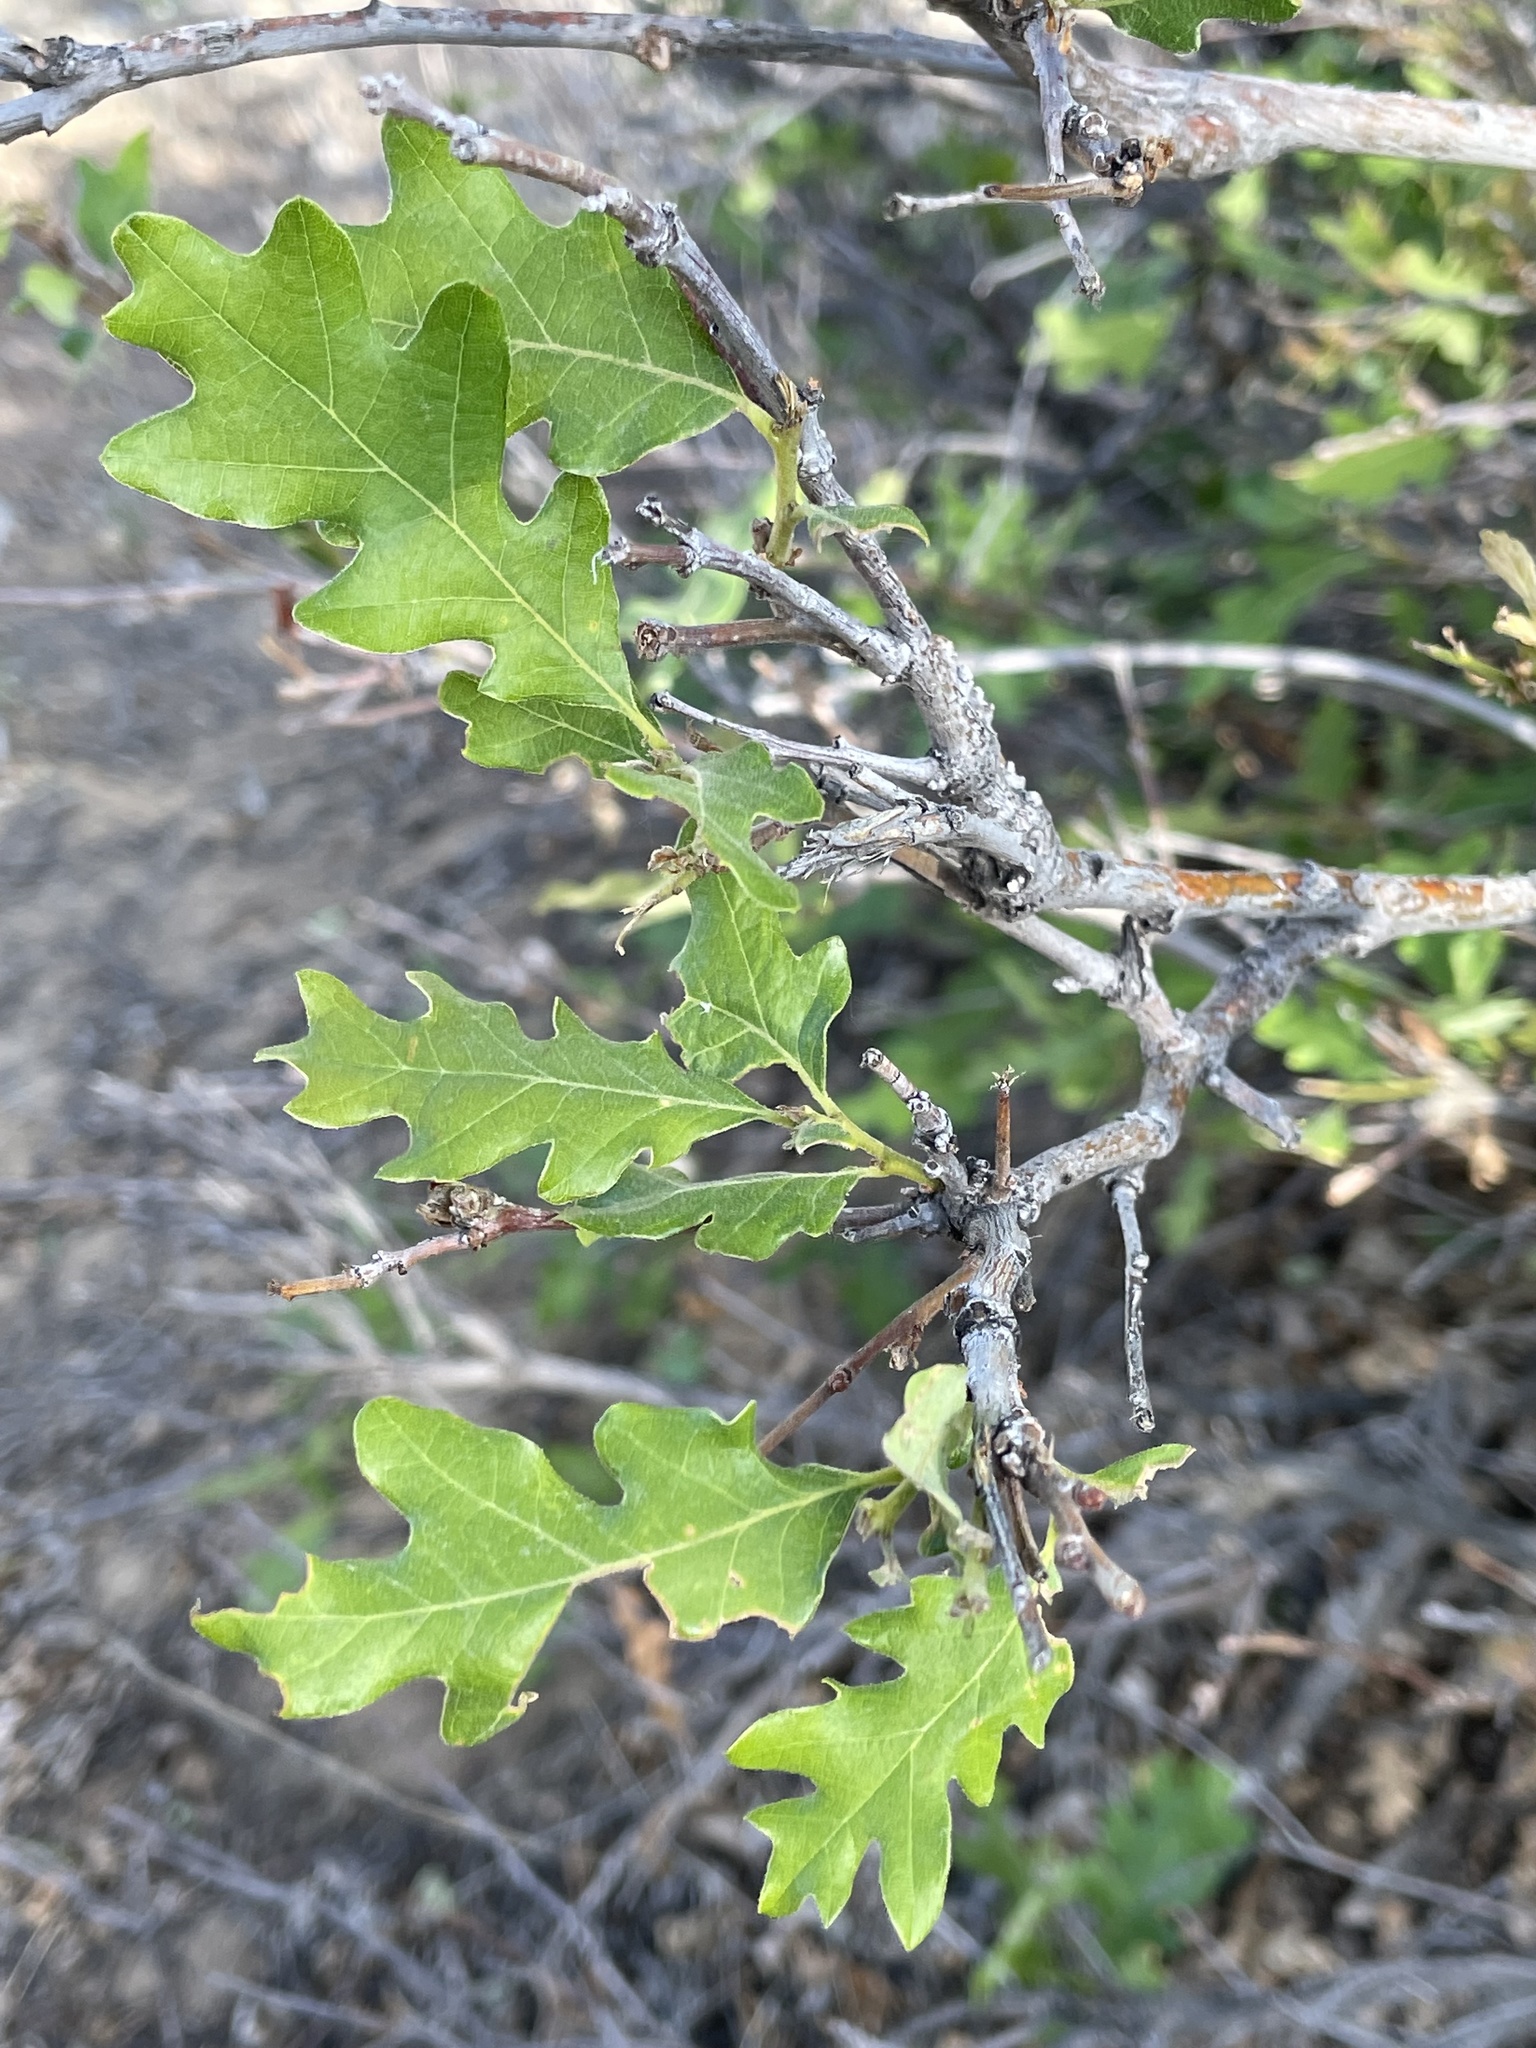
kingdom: Plantae
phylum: Tracheophyta
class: Magnoliopsida
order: Fagales
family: Fagaceae
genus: Quercus
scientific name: Quercus gambelii
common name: Gambel oak
